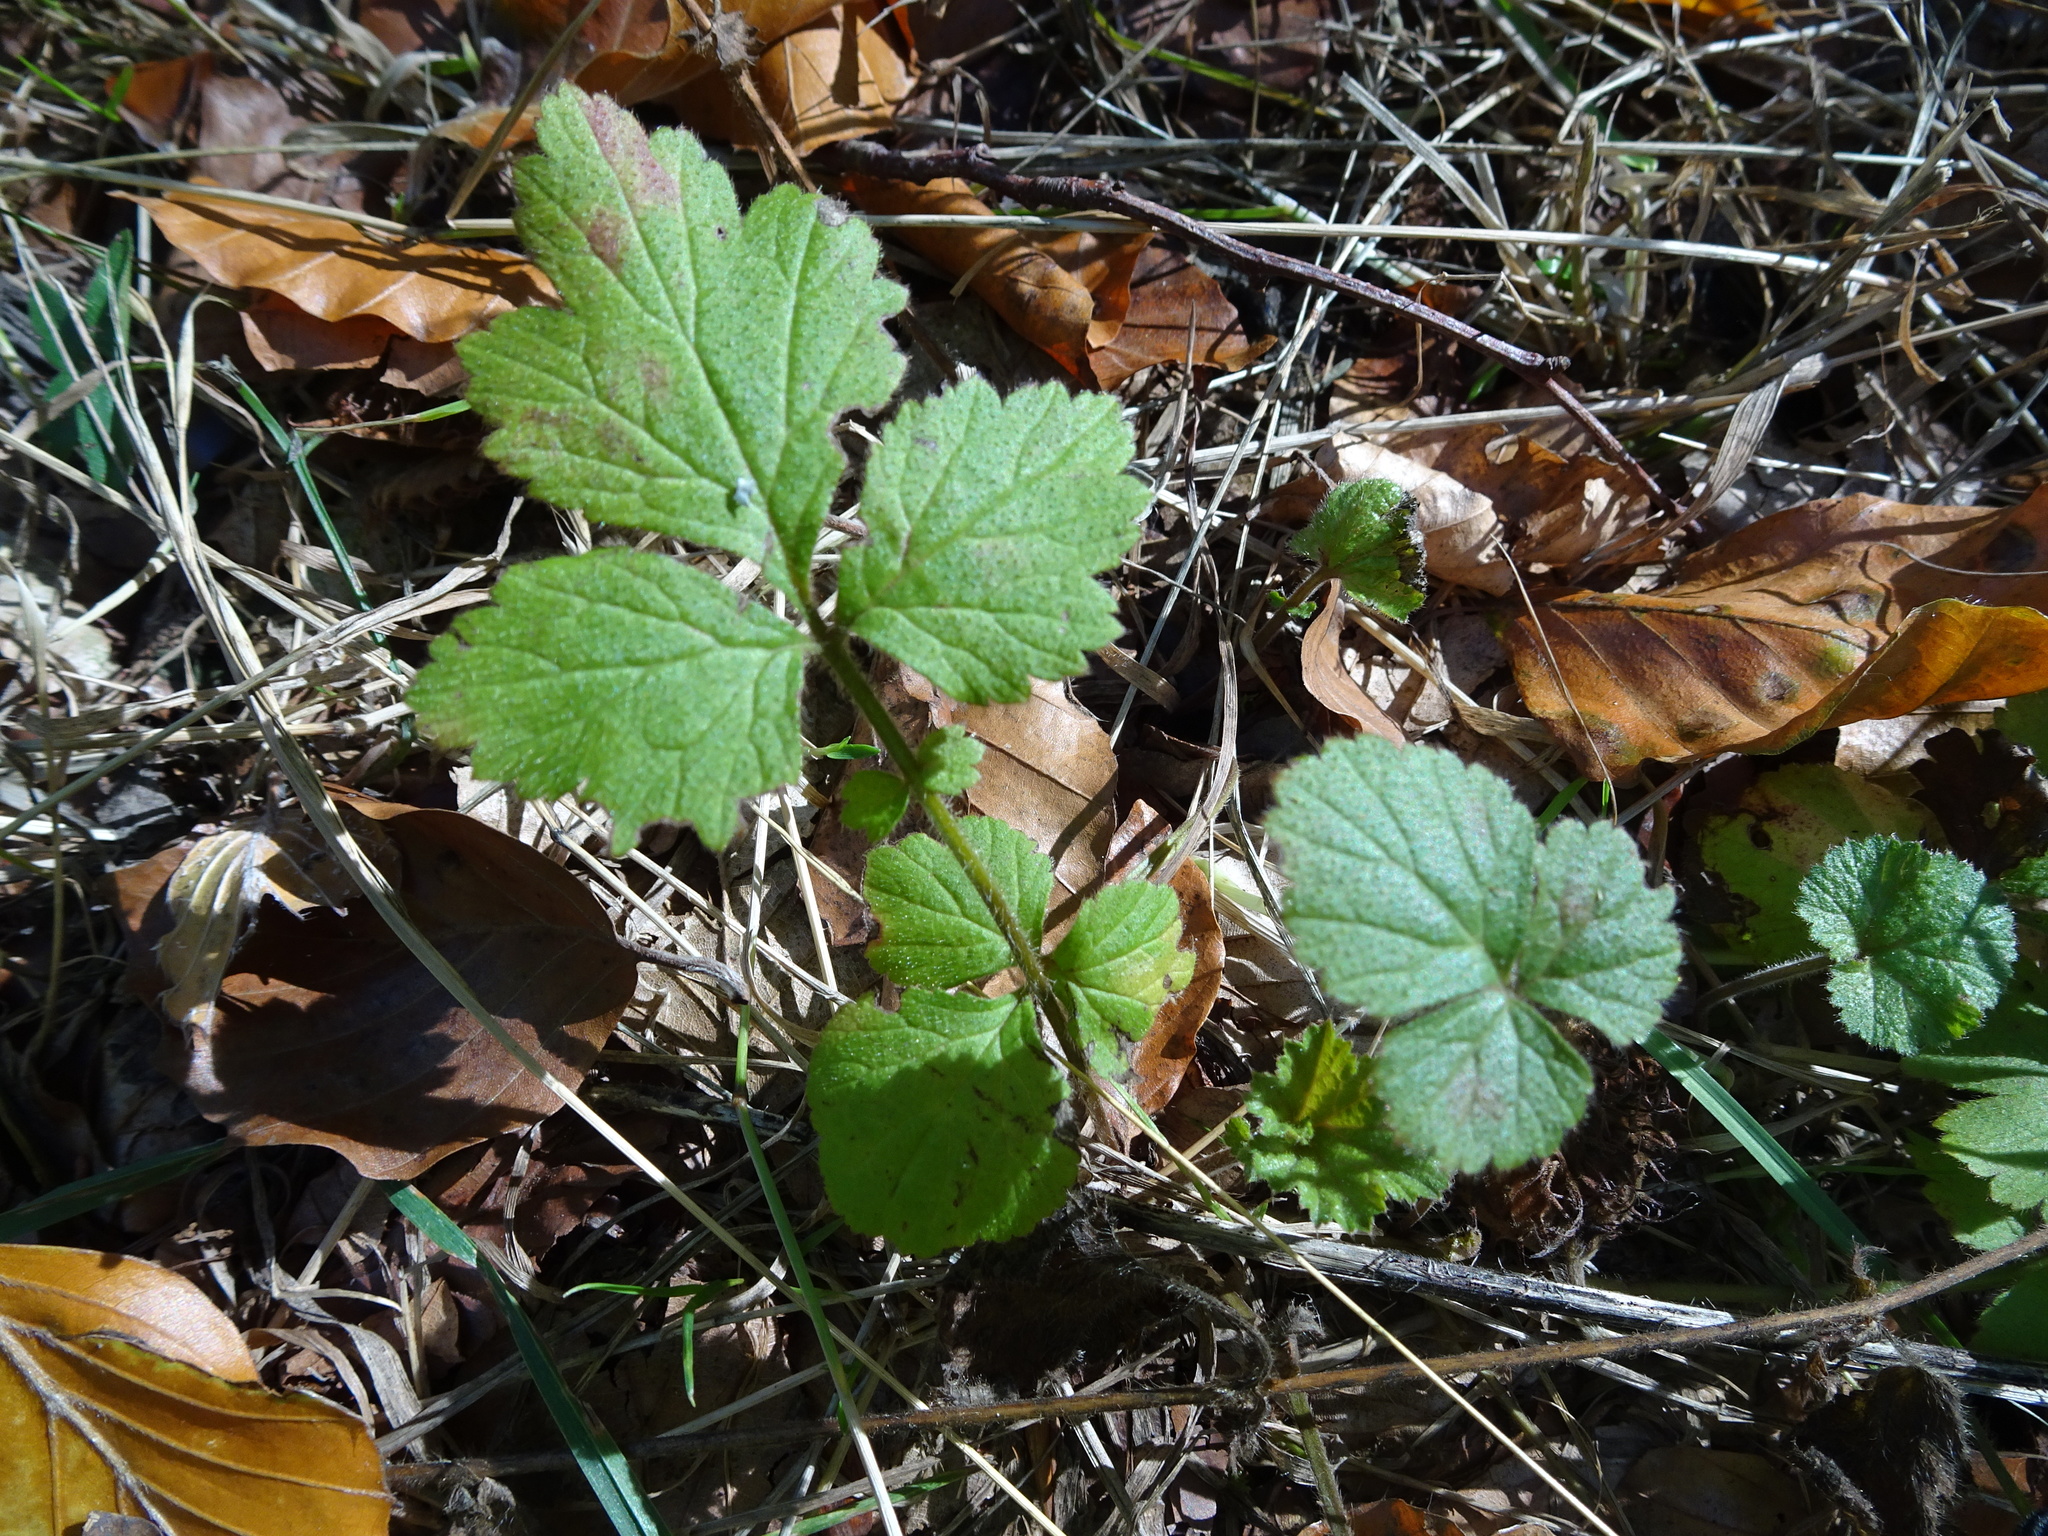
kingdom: Plantae
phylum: Tracheophyta
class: Magnoliopsida
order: Rosales
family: Rosaceae
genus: Geum
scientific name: Geum urbanum
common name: Wood avens
